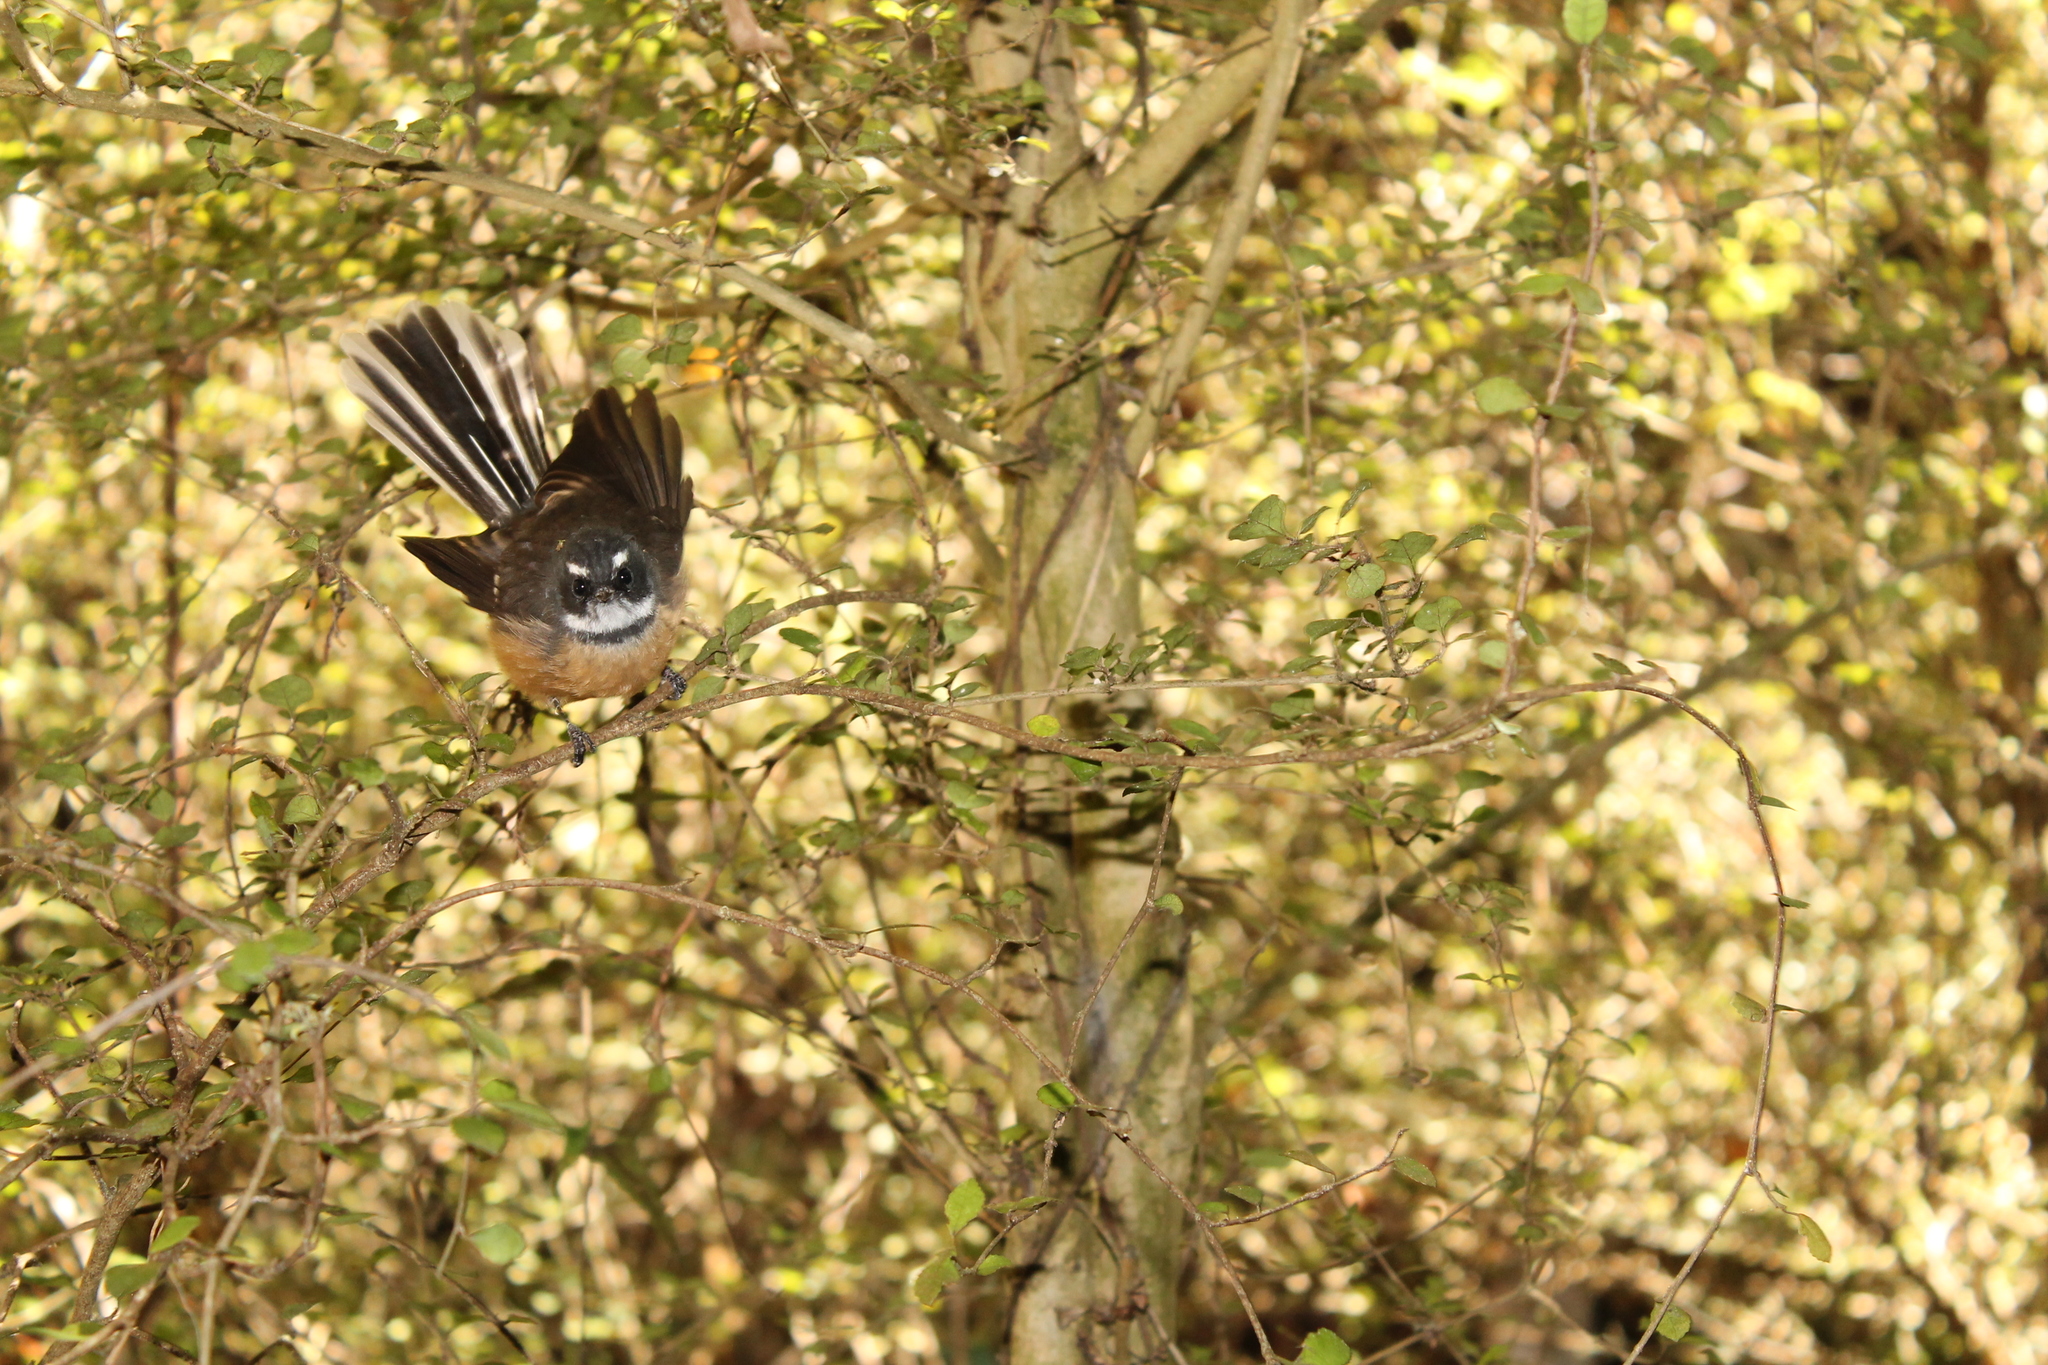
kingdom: Animalia
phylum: Chordata
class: Aves
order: Passeriformes
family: Rhipiduridae
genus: Rhipidura
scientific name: Rhipidura fuliginosa
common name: New zealand fantail
